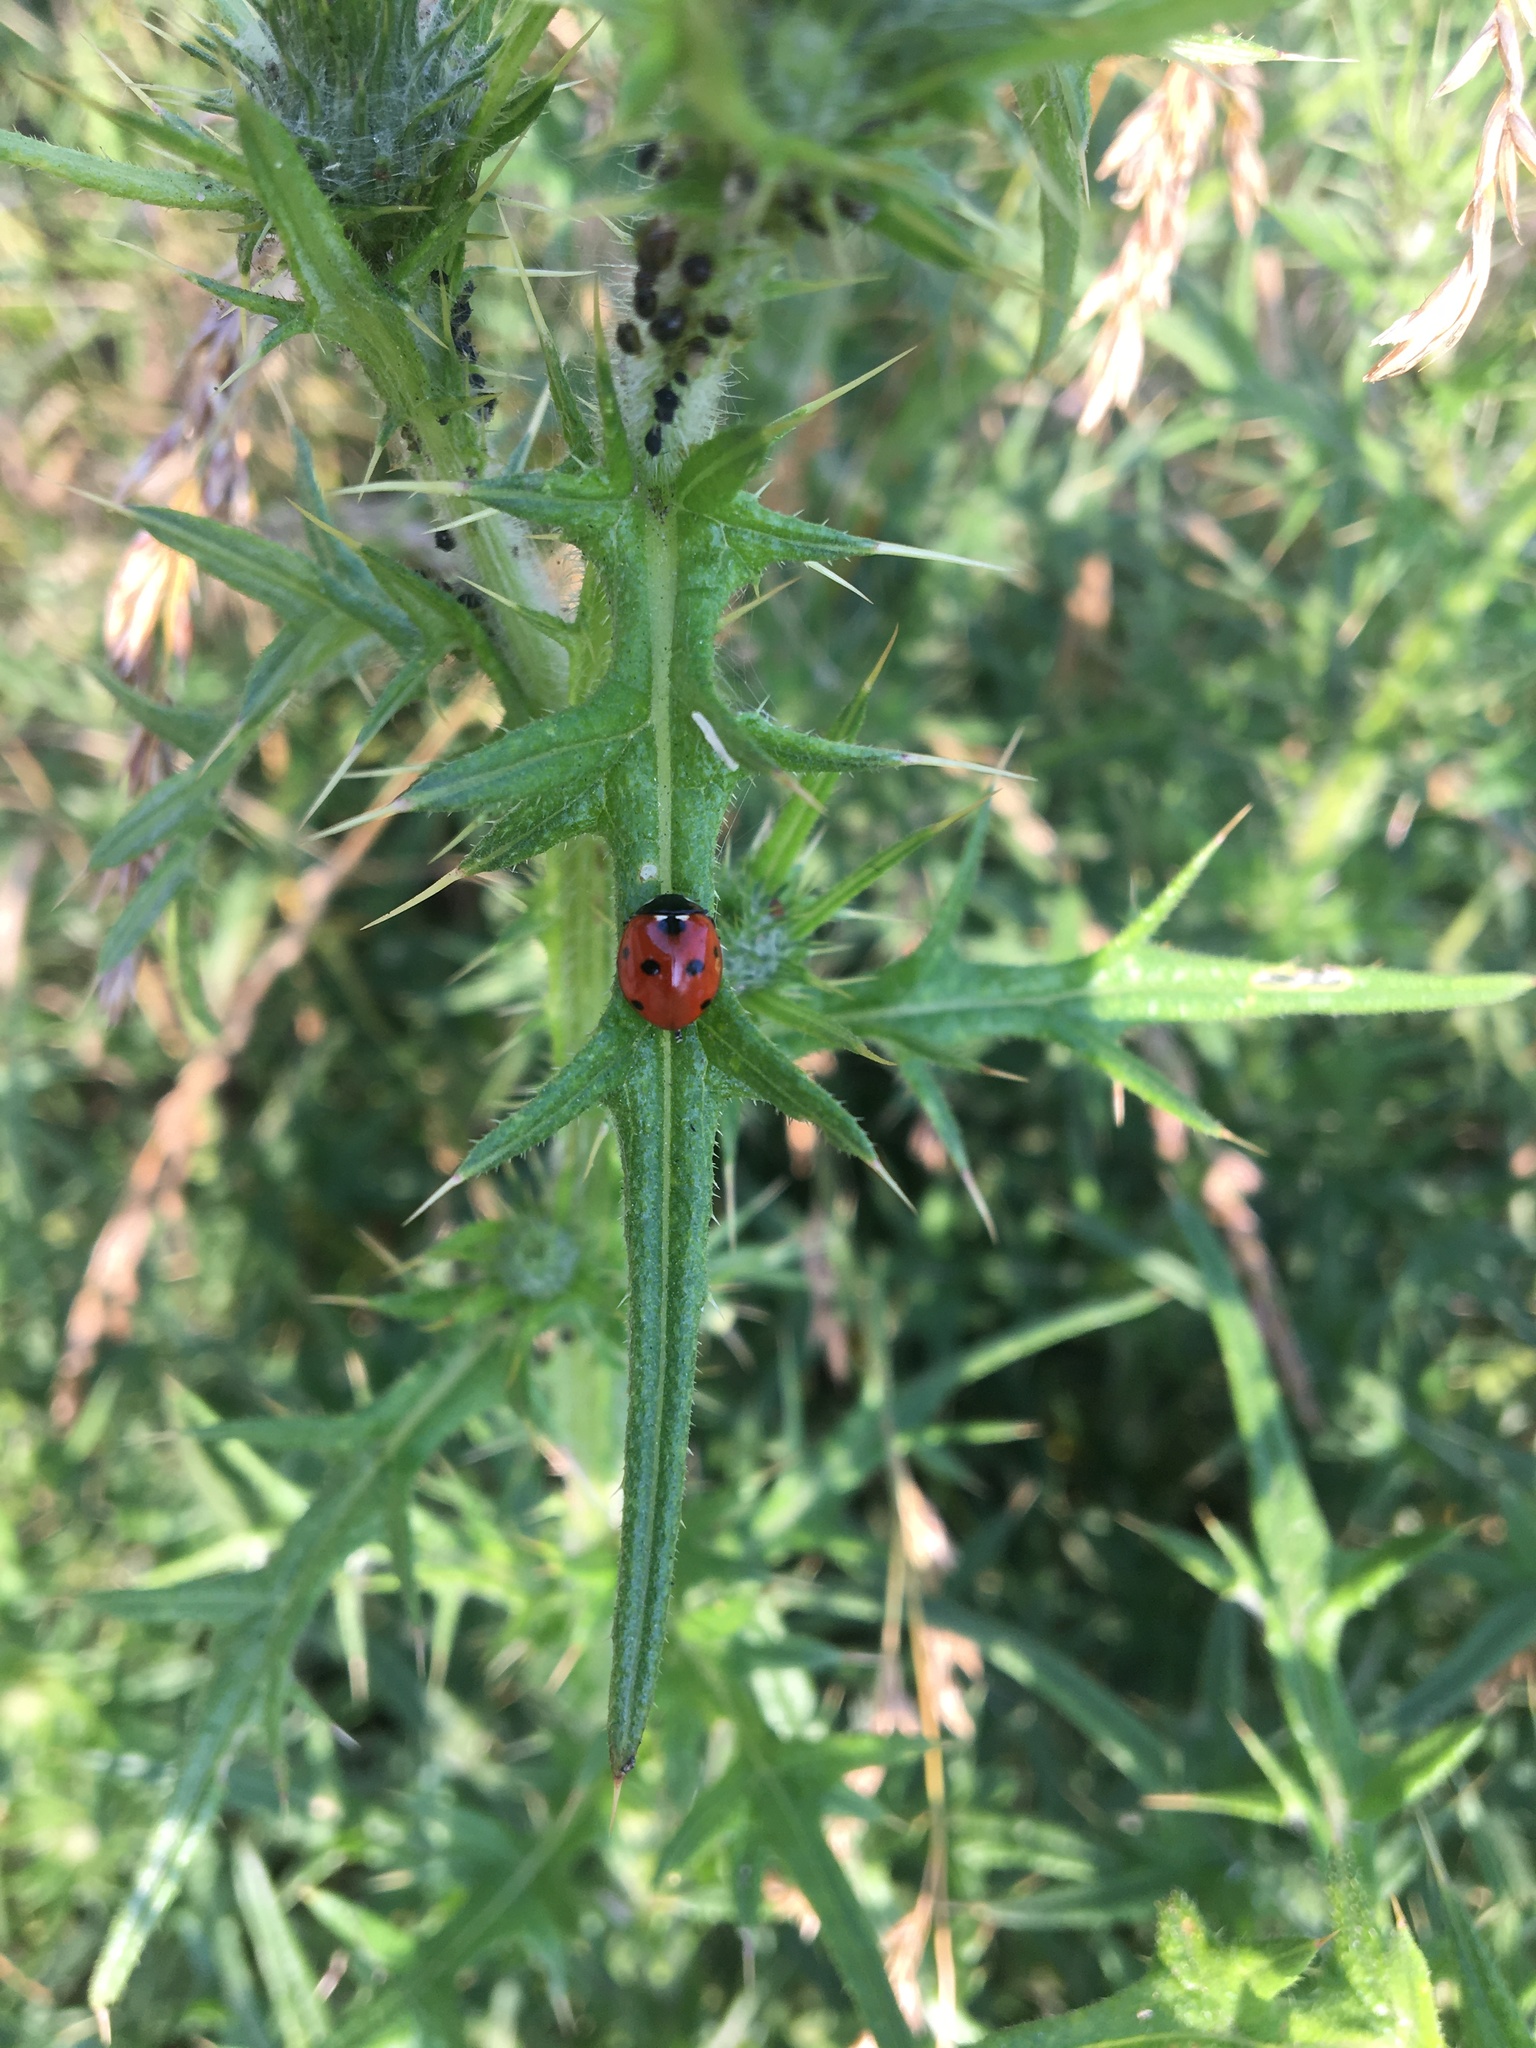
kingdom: Animalia
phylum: Arthropoda
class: Insecta
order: Coleoptera
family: Coccinellidae
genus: Coccinella
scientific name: Coccinella septempunctata
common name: Sevenspotted lady beetle
